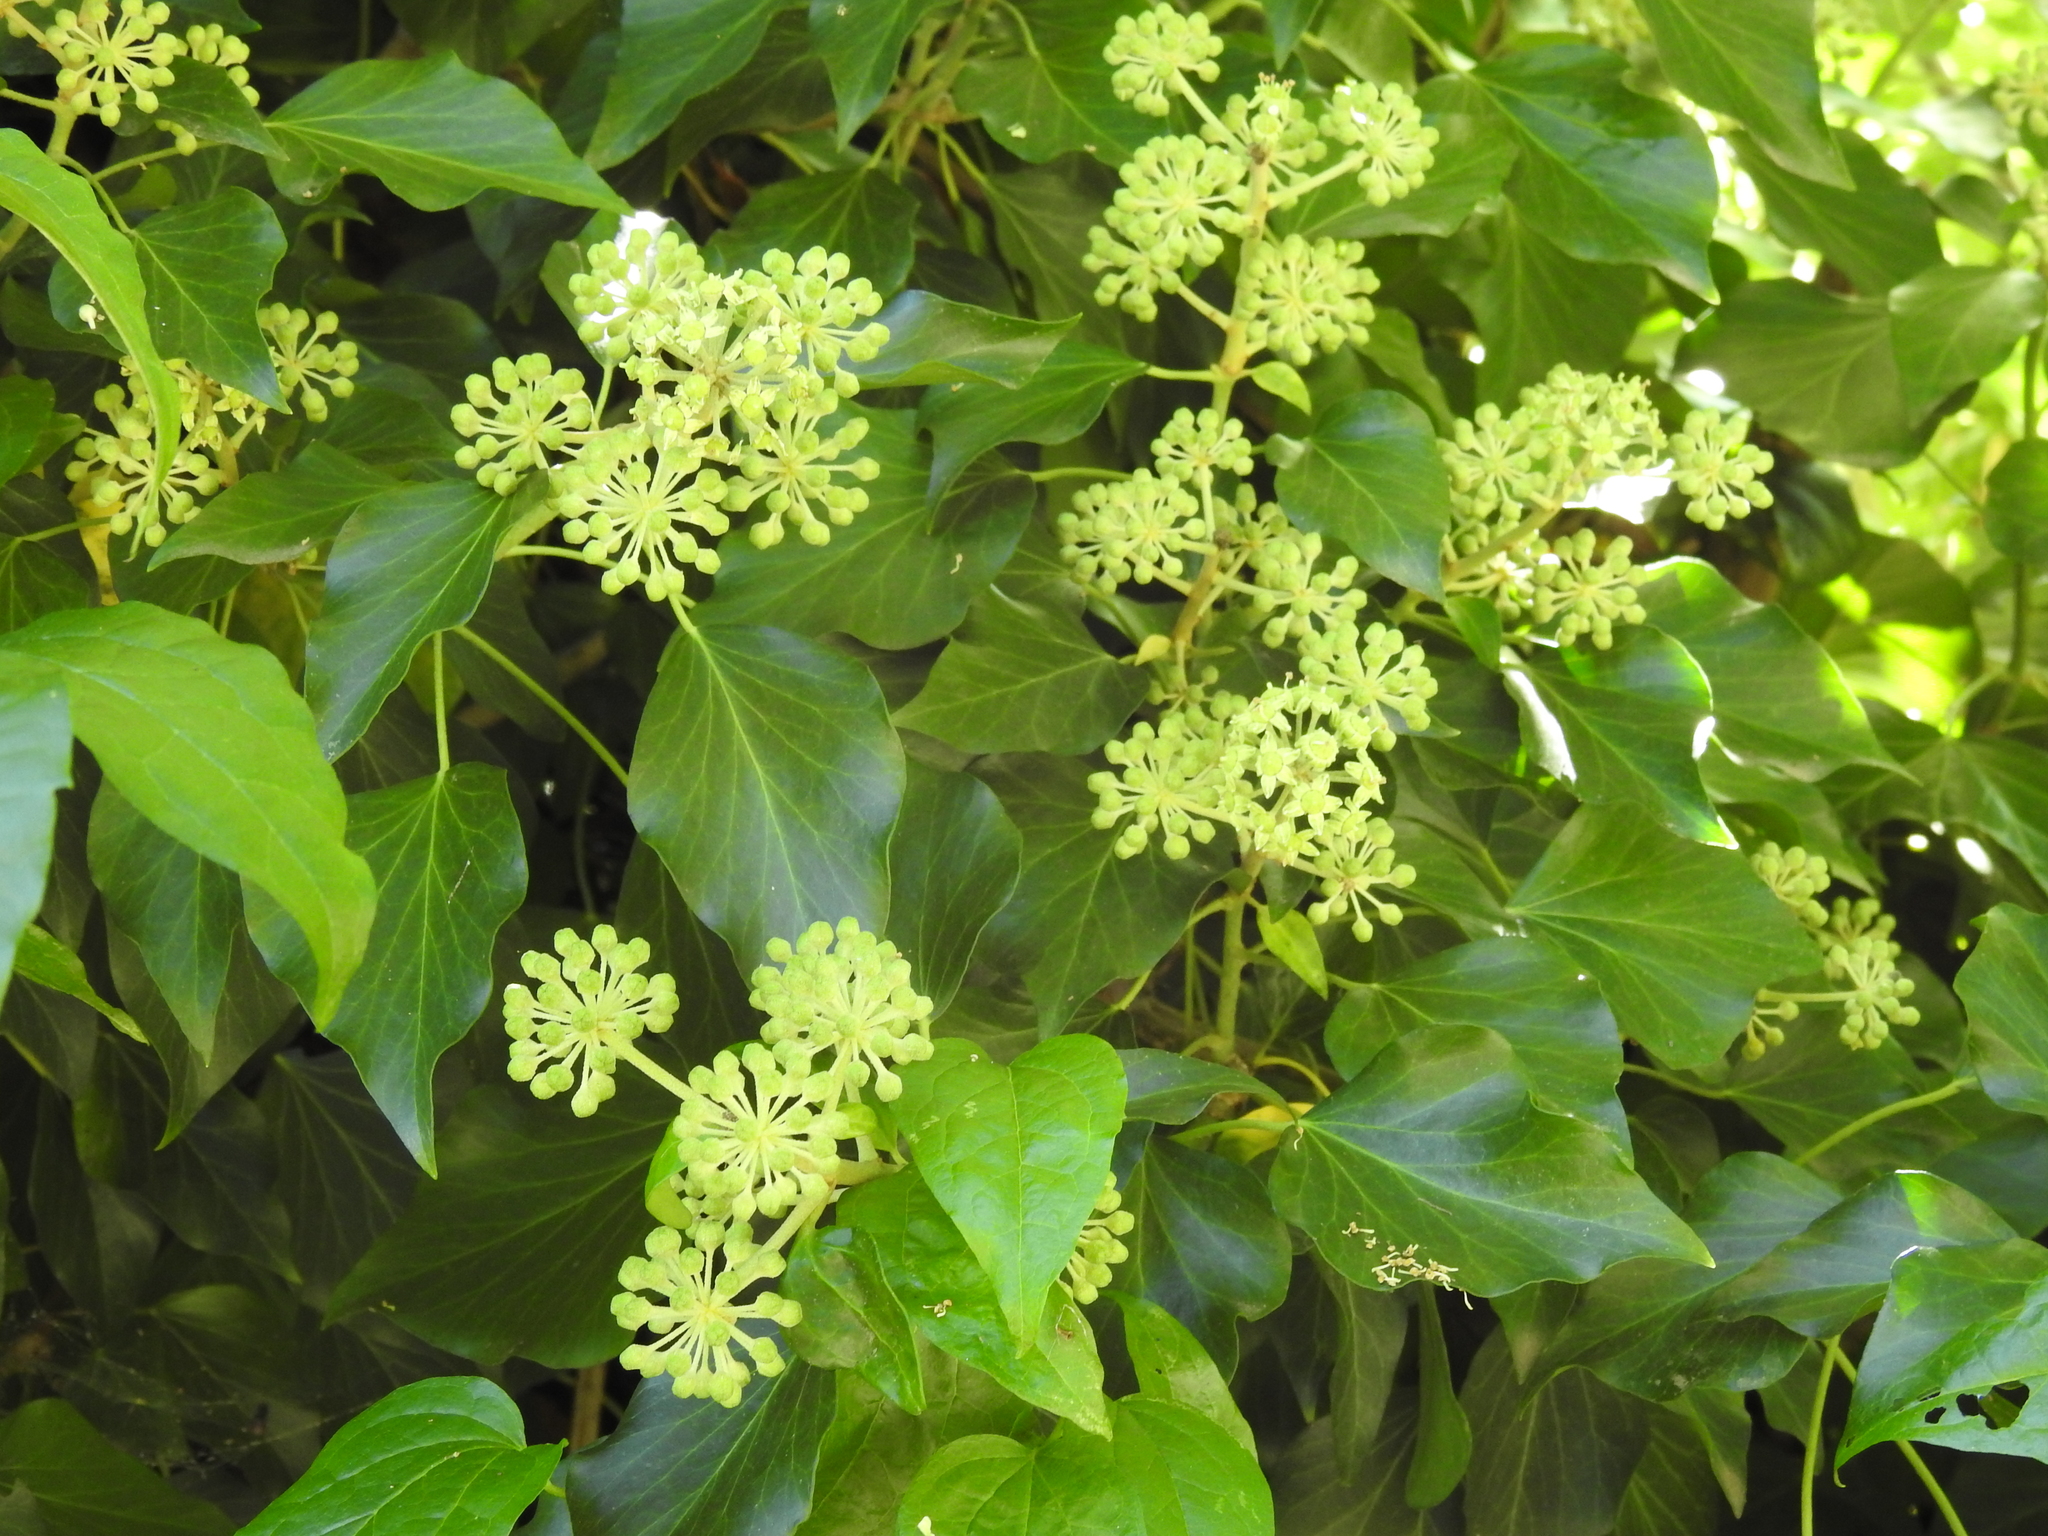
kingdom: Plantae
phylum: Tracheophyta
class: Magnoliopsida
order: Apiales
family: Araliaceae
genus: Hedera
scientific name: Hedera helix
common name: Ivy
